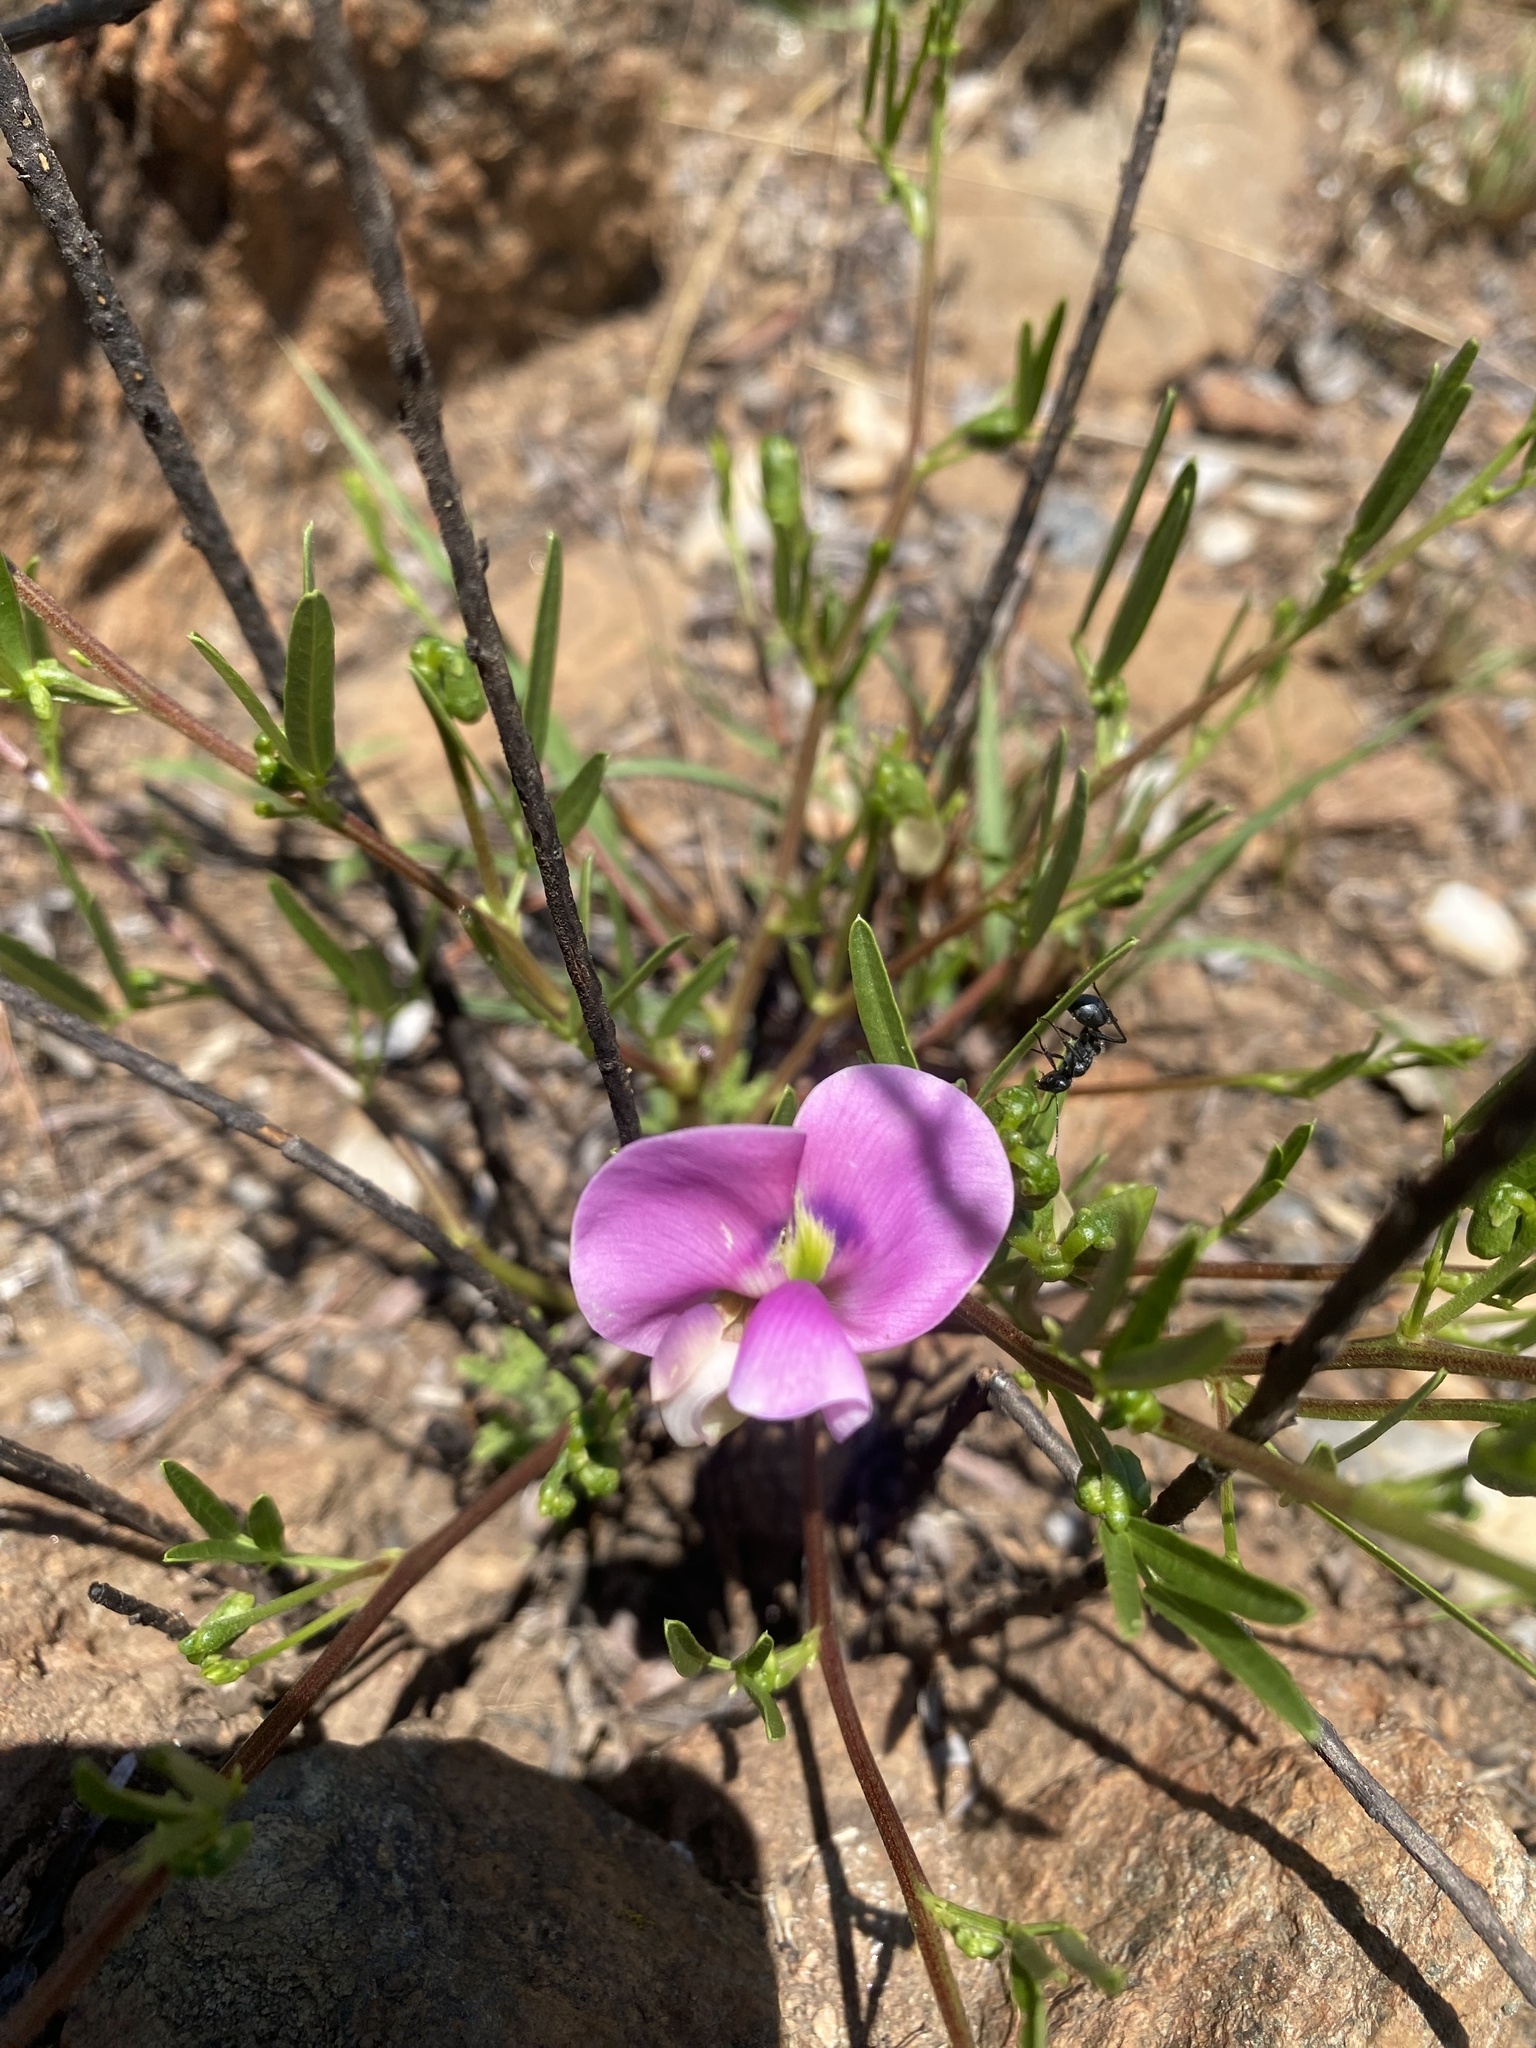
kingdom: Plantae
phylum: Tracheophyta
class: Magnoliopsida
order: Fabales
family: Fabaceae
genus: Sphenostylis
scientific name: Sphenostylis angustifolia
